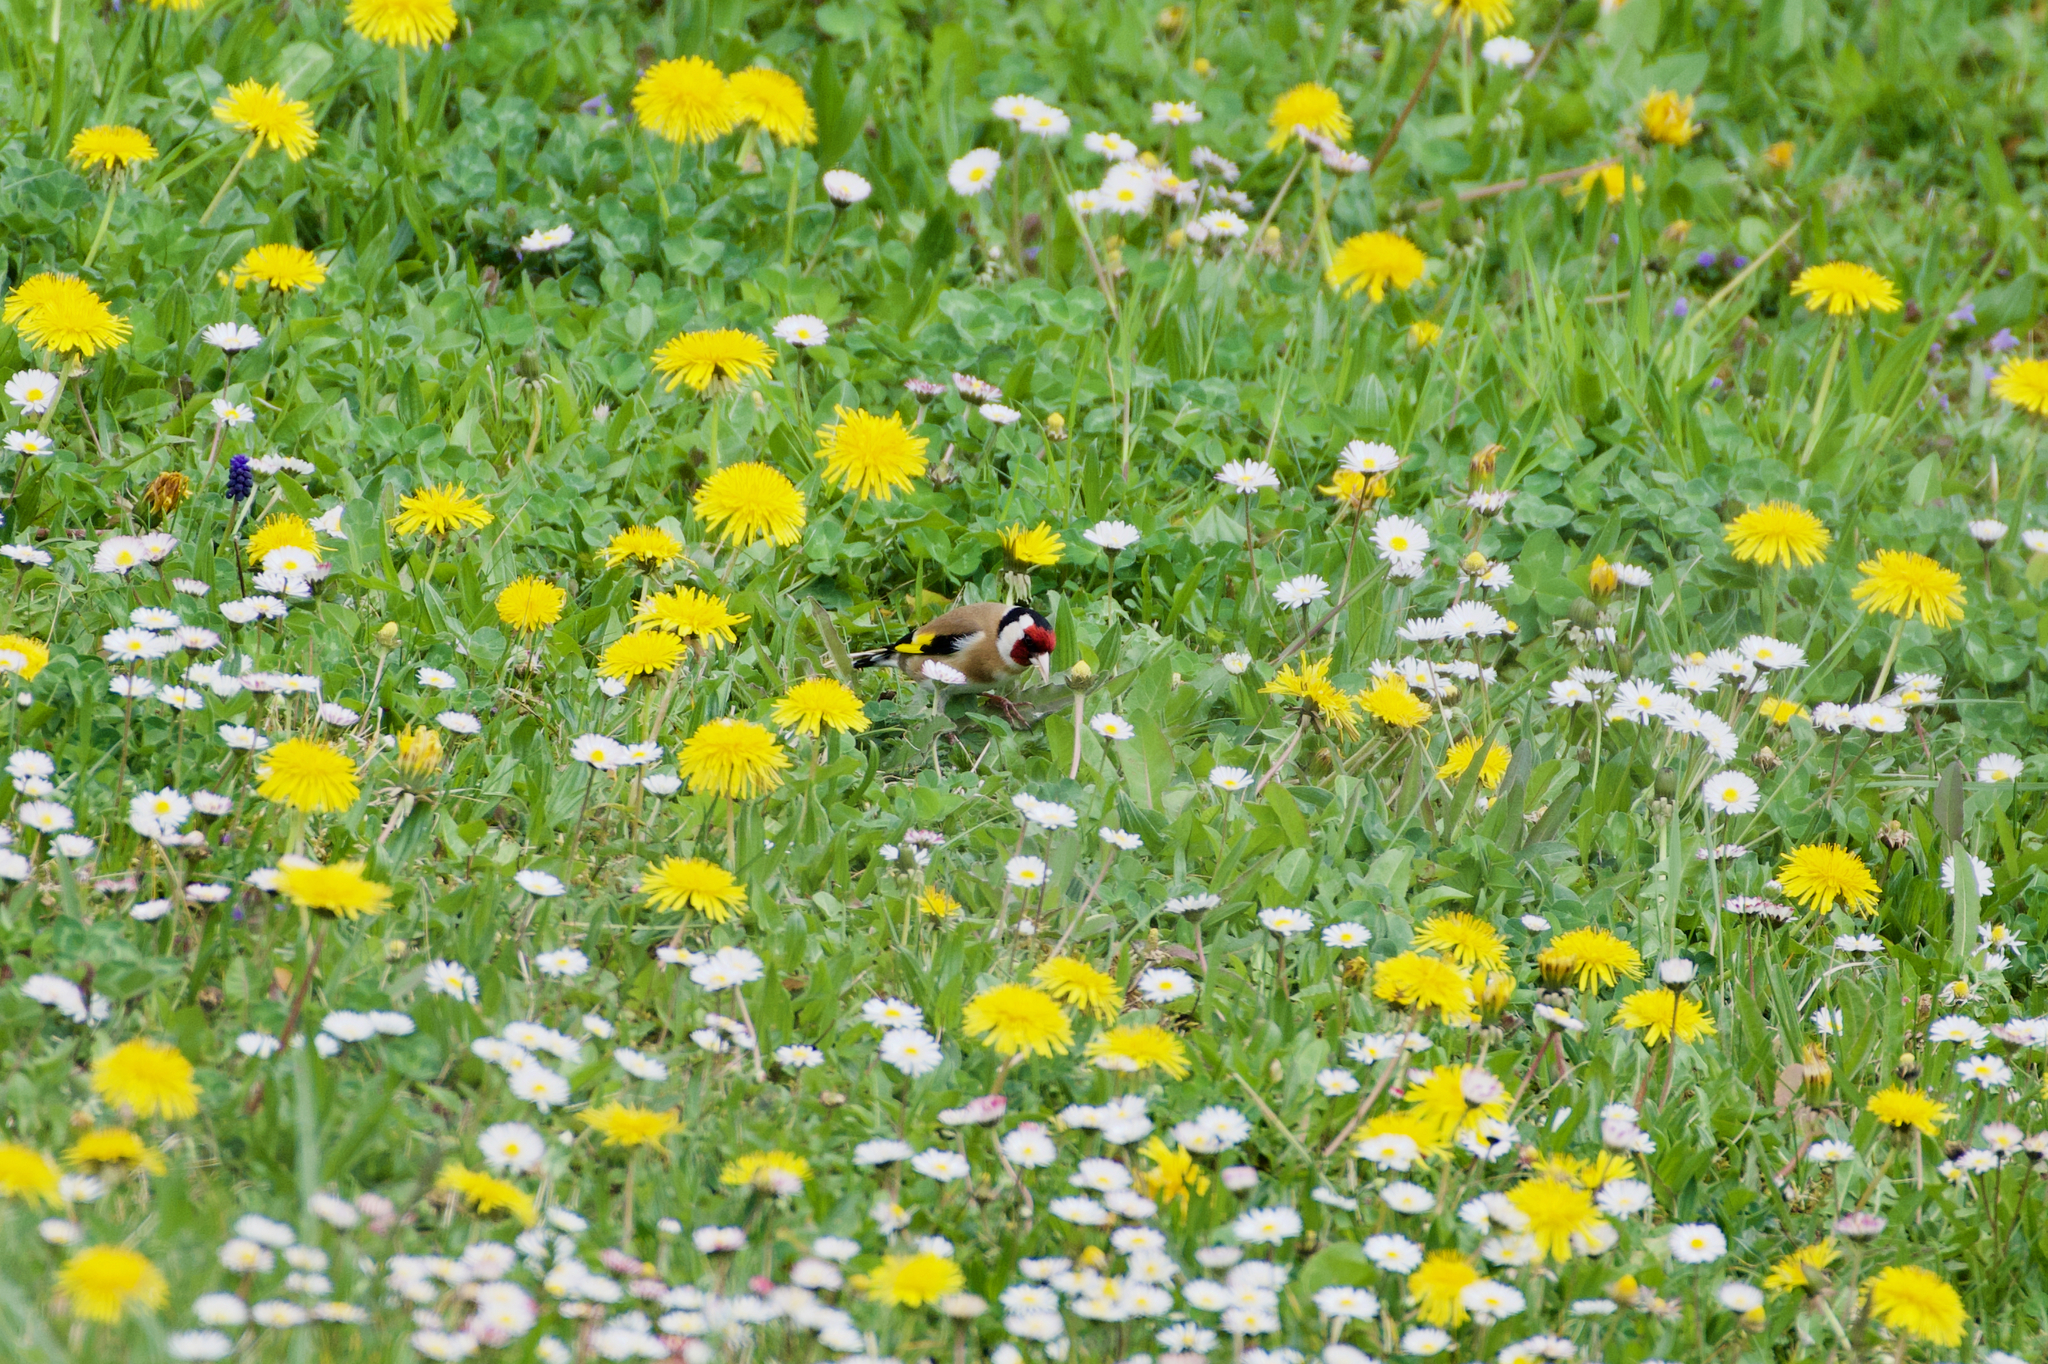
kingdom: Animalia
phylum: Chordata
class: Aves
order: Passeriformes
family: Fringillidae
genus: Carduelis
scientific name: Carduelis carduelis
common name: European goldfinch
